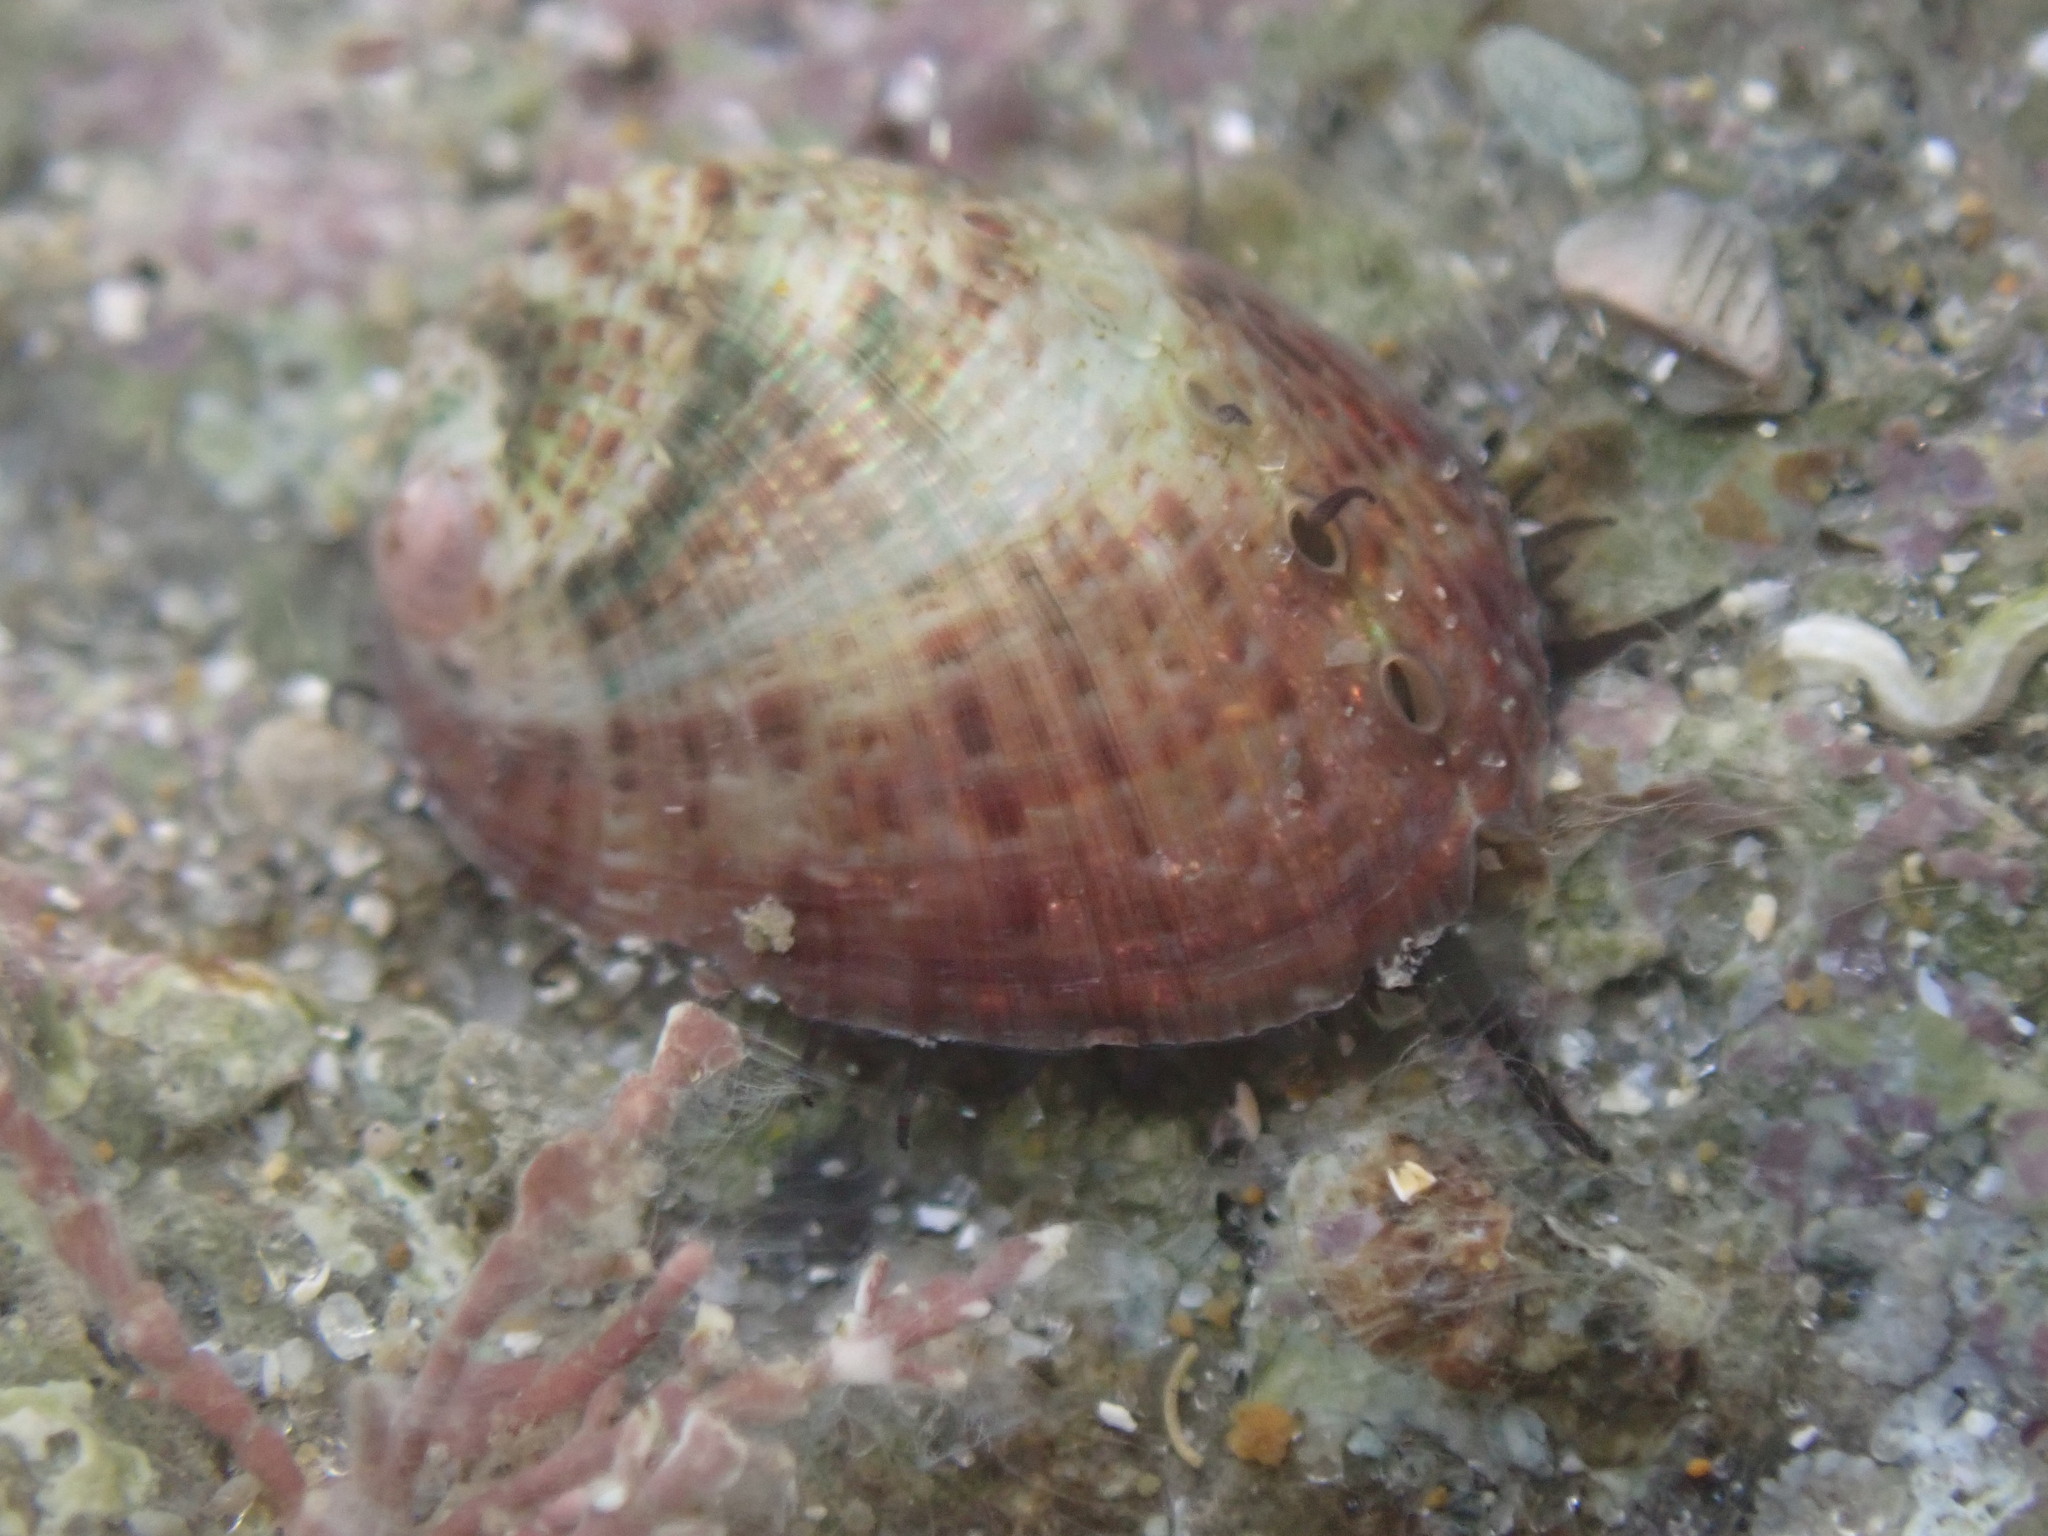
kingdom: Animalia
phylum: Mollusca
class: Gastropoda
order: Lepetellida
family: Haliotidae
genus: Haliotis
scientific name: Haliotis iris
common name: Abalone
